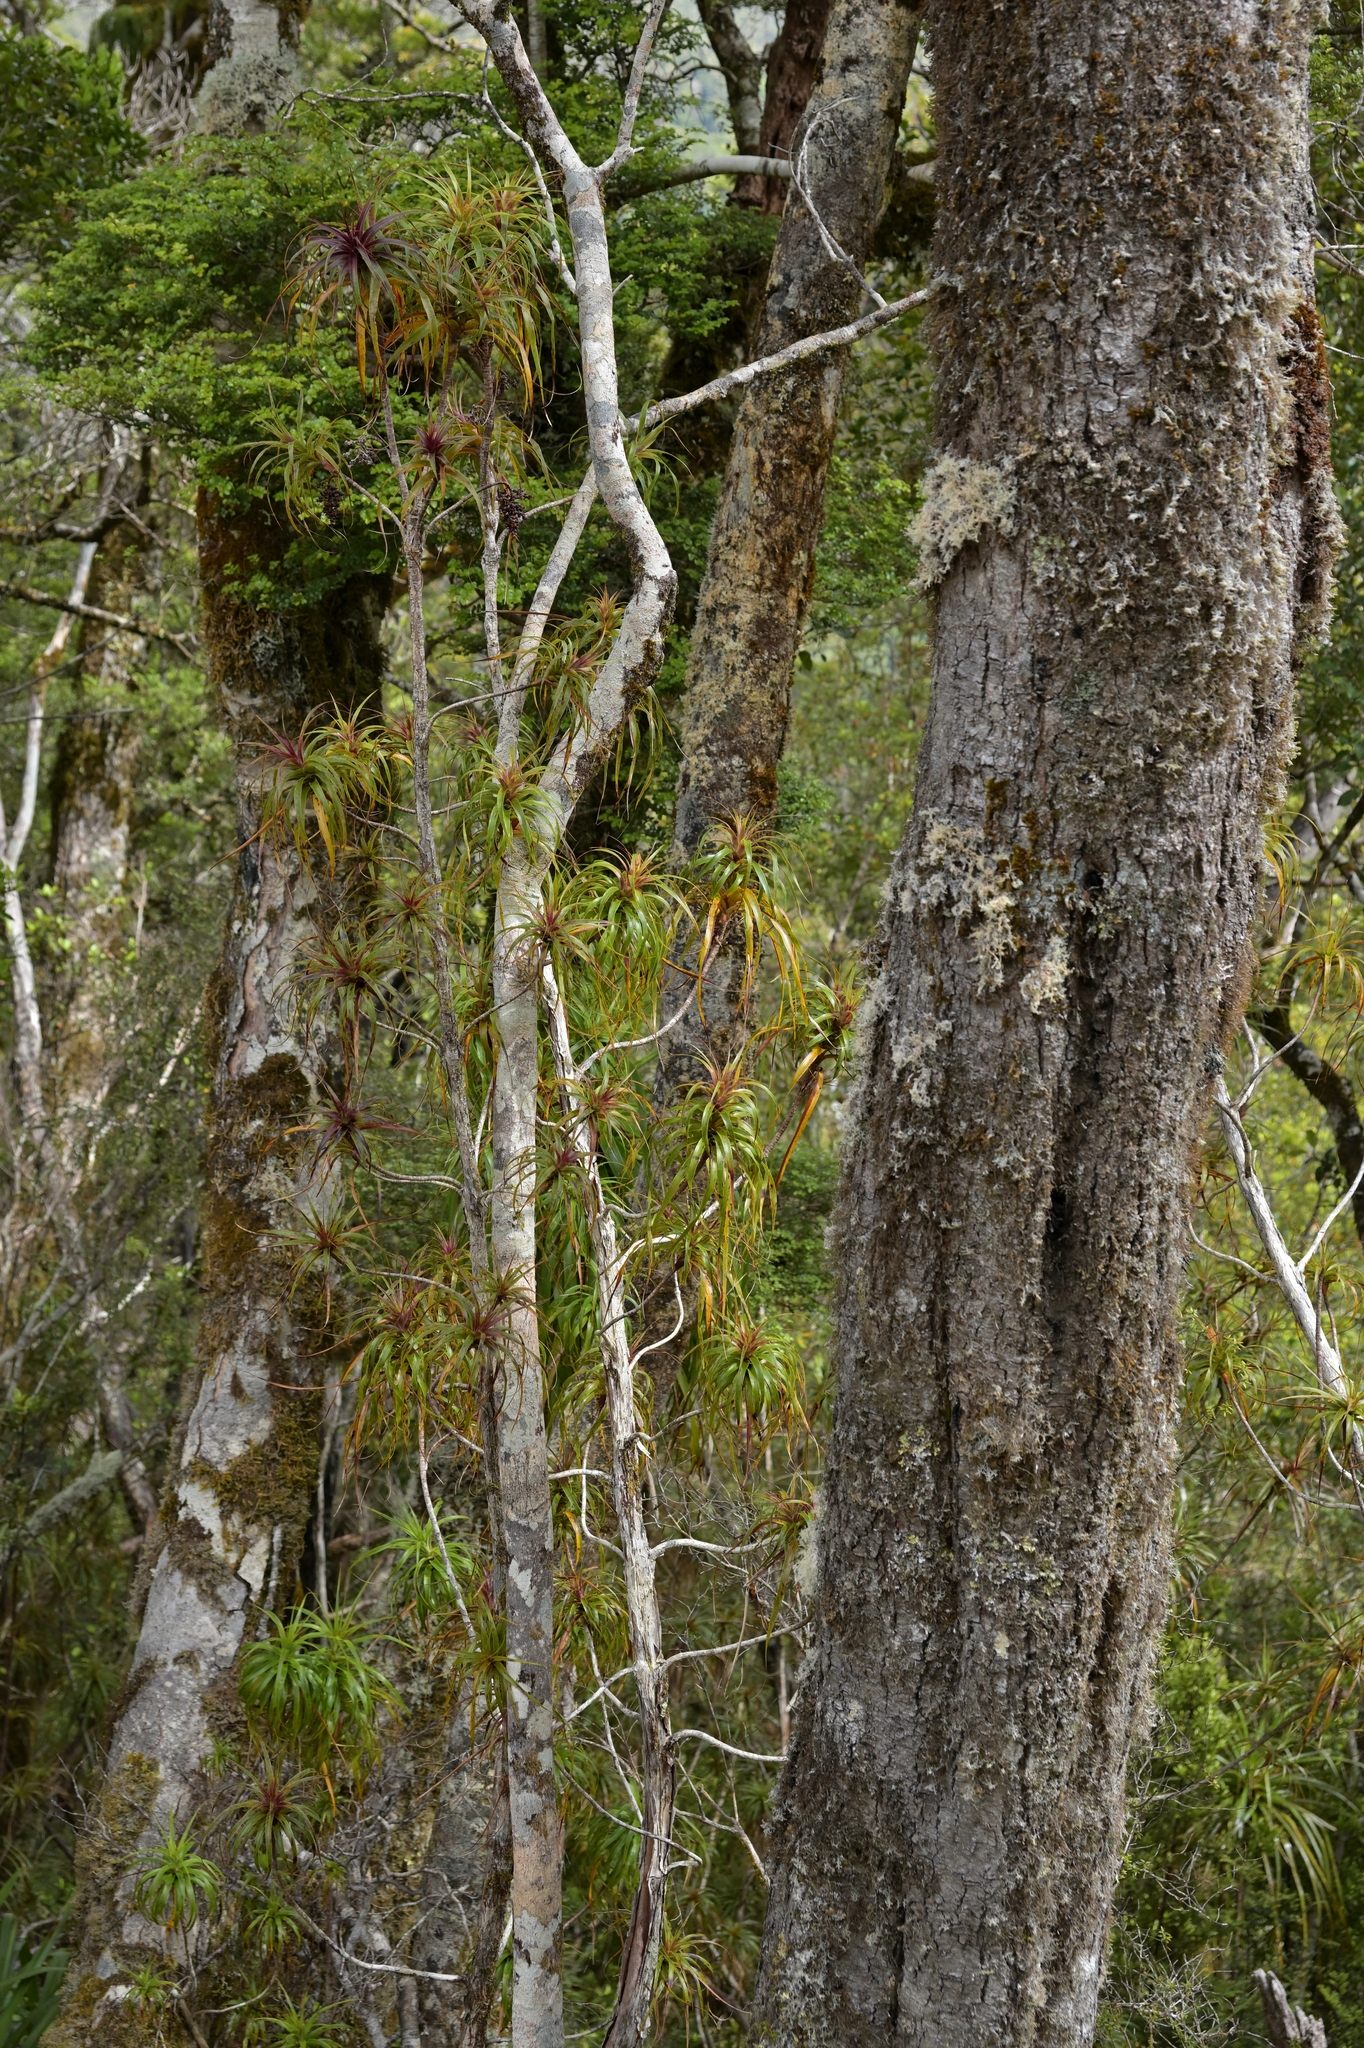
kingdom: Plantae
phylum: Tracheophyta
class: Magnoliopsida
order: Ericales
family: Ericaceae
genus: Dracophyllum
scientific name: Dracophyllum townsonii
